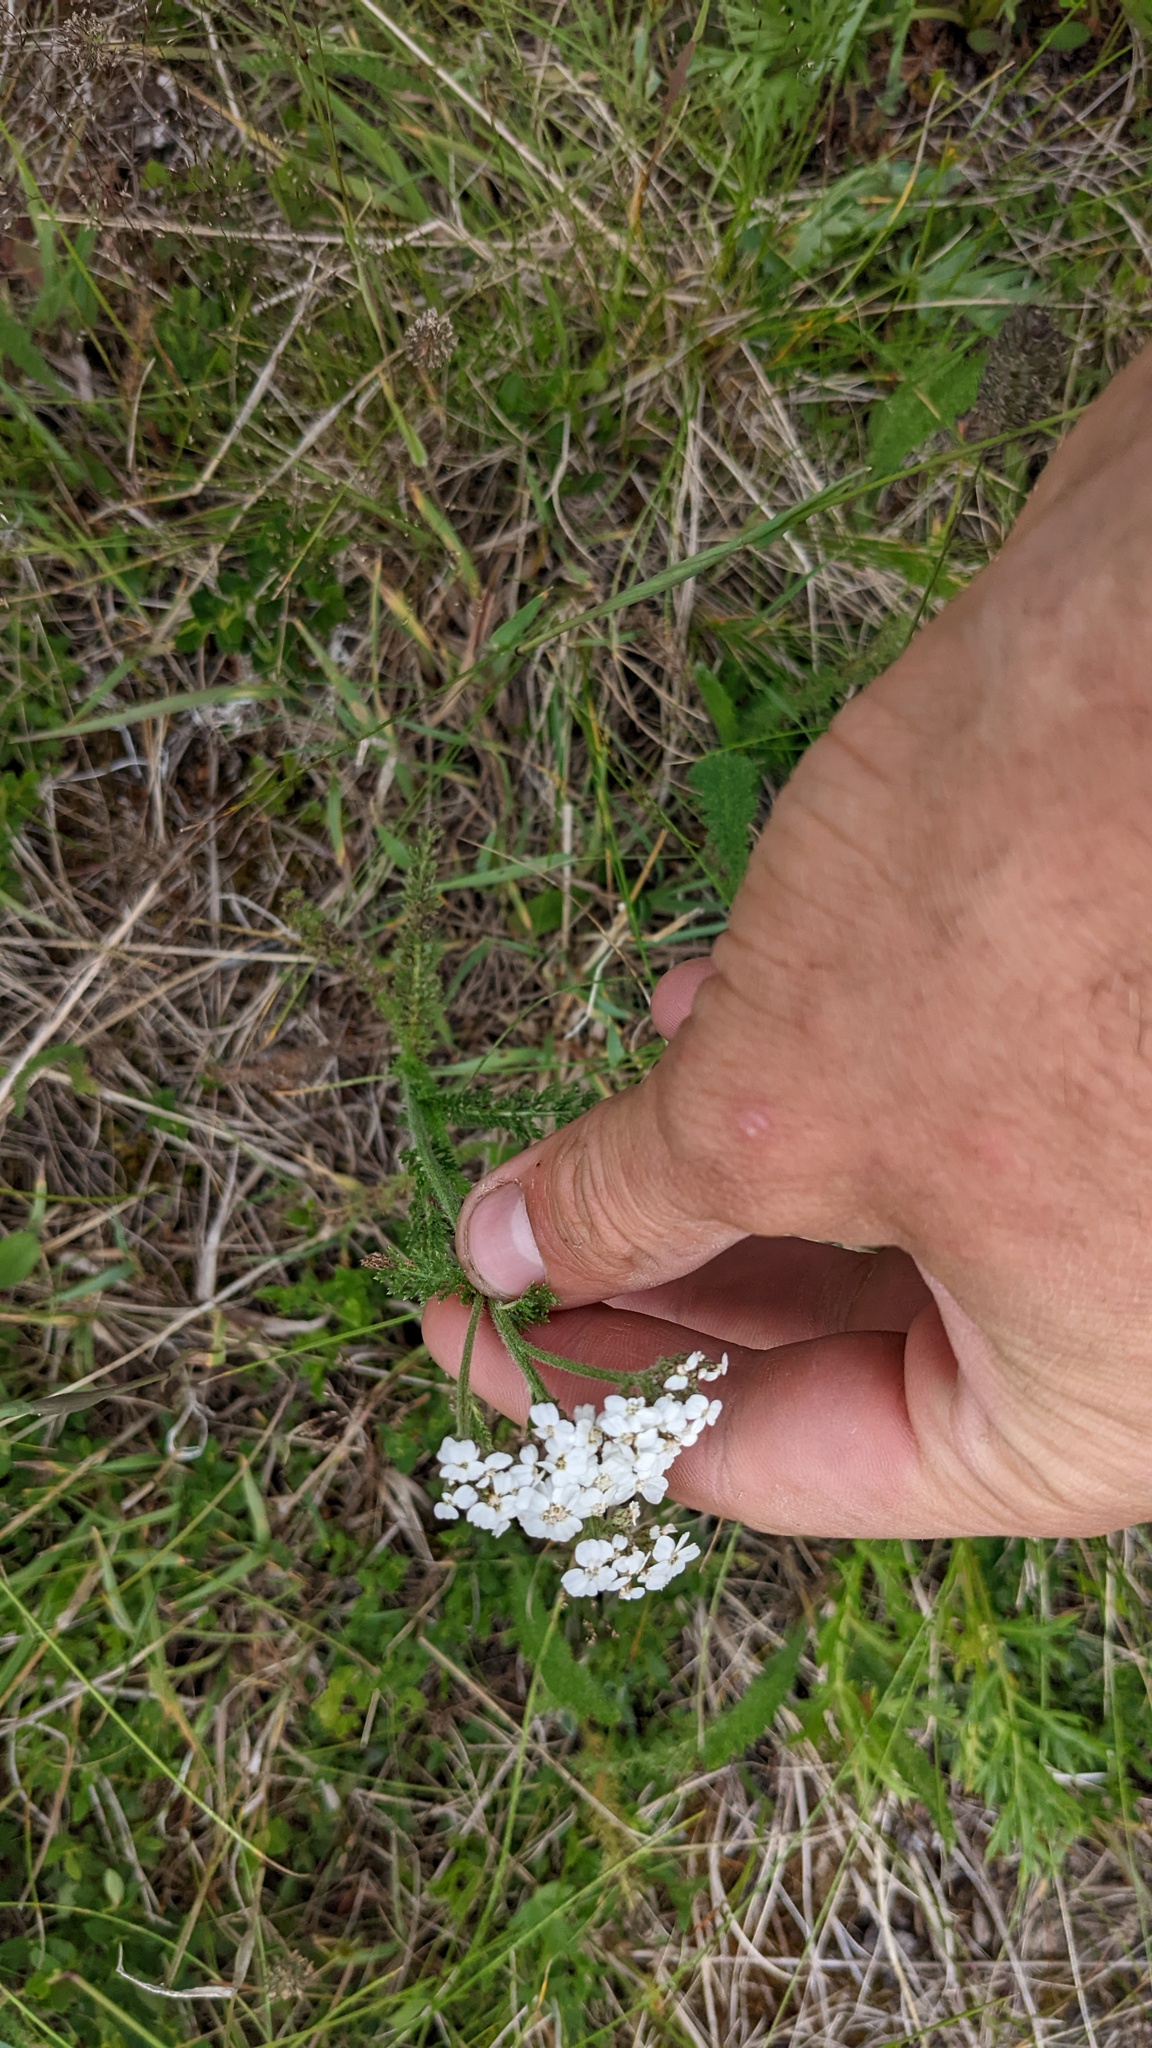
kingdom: Plantae
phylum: Tracheophyta
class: Magnoliopsida
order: Asterales
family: Asteraceae
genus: Achillea
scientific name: Achillea millefolium
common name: Yarrow
